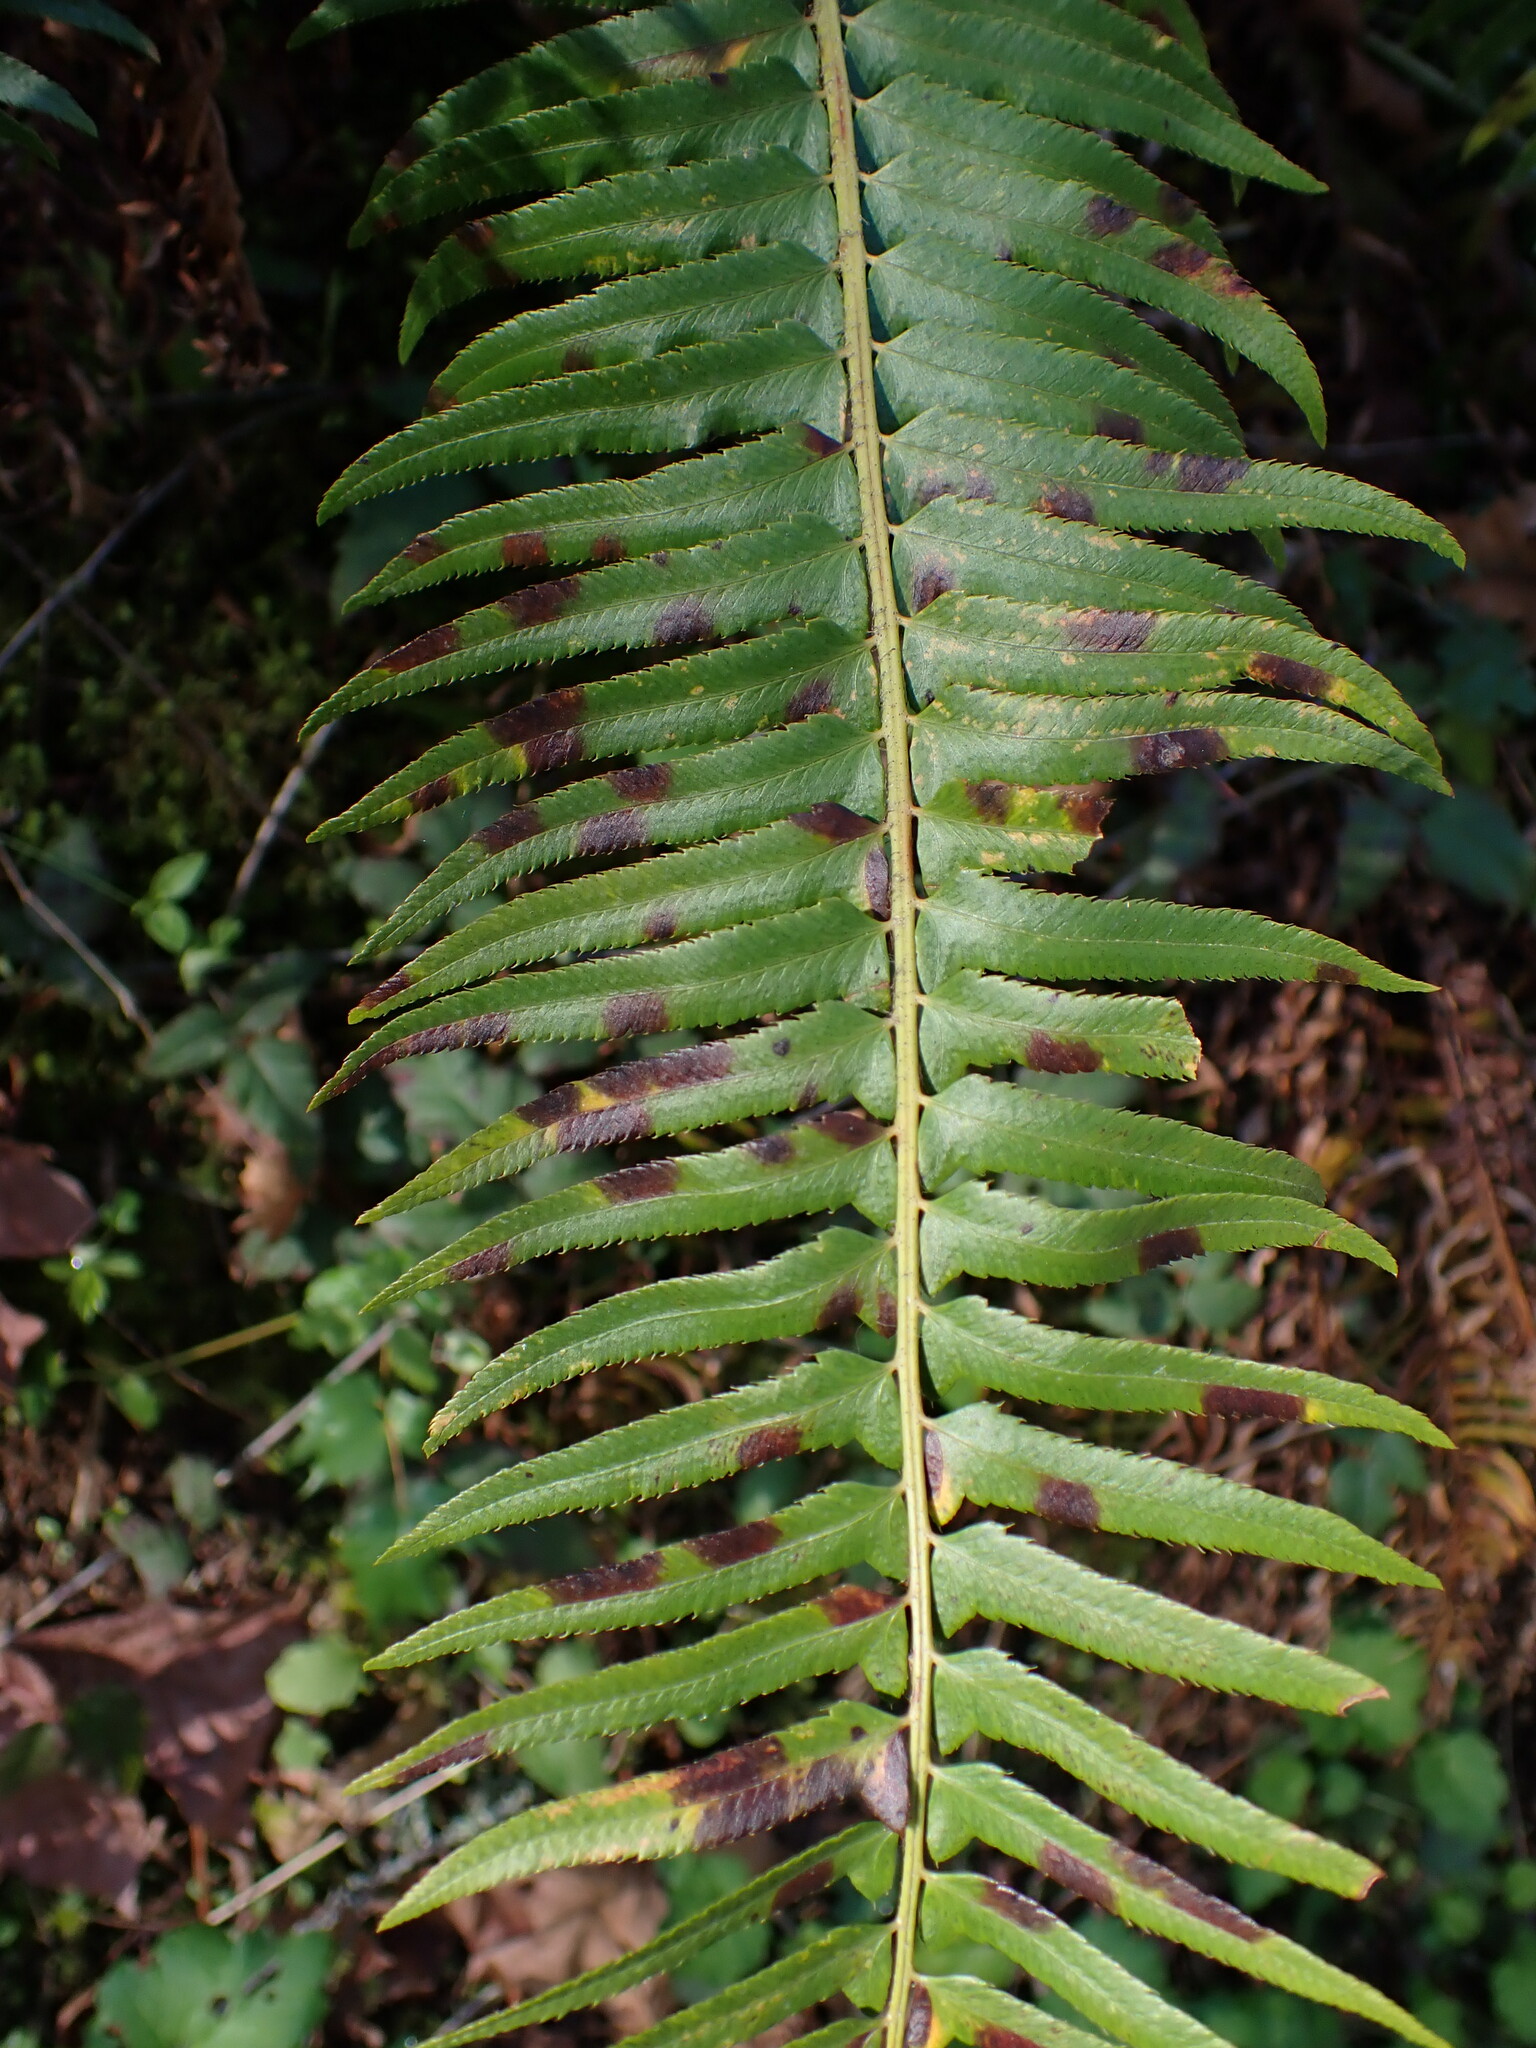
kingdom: Plantae
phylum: Tracheophyta
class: Polypodiopsida
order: Polypodiales
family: Dryopteridaceae
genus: Polystichum
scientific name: Polystichum munitum
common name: Western sword-fern
